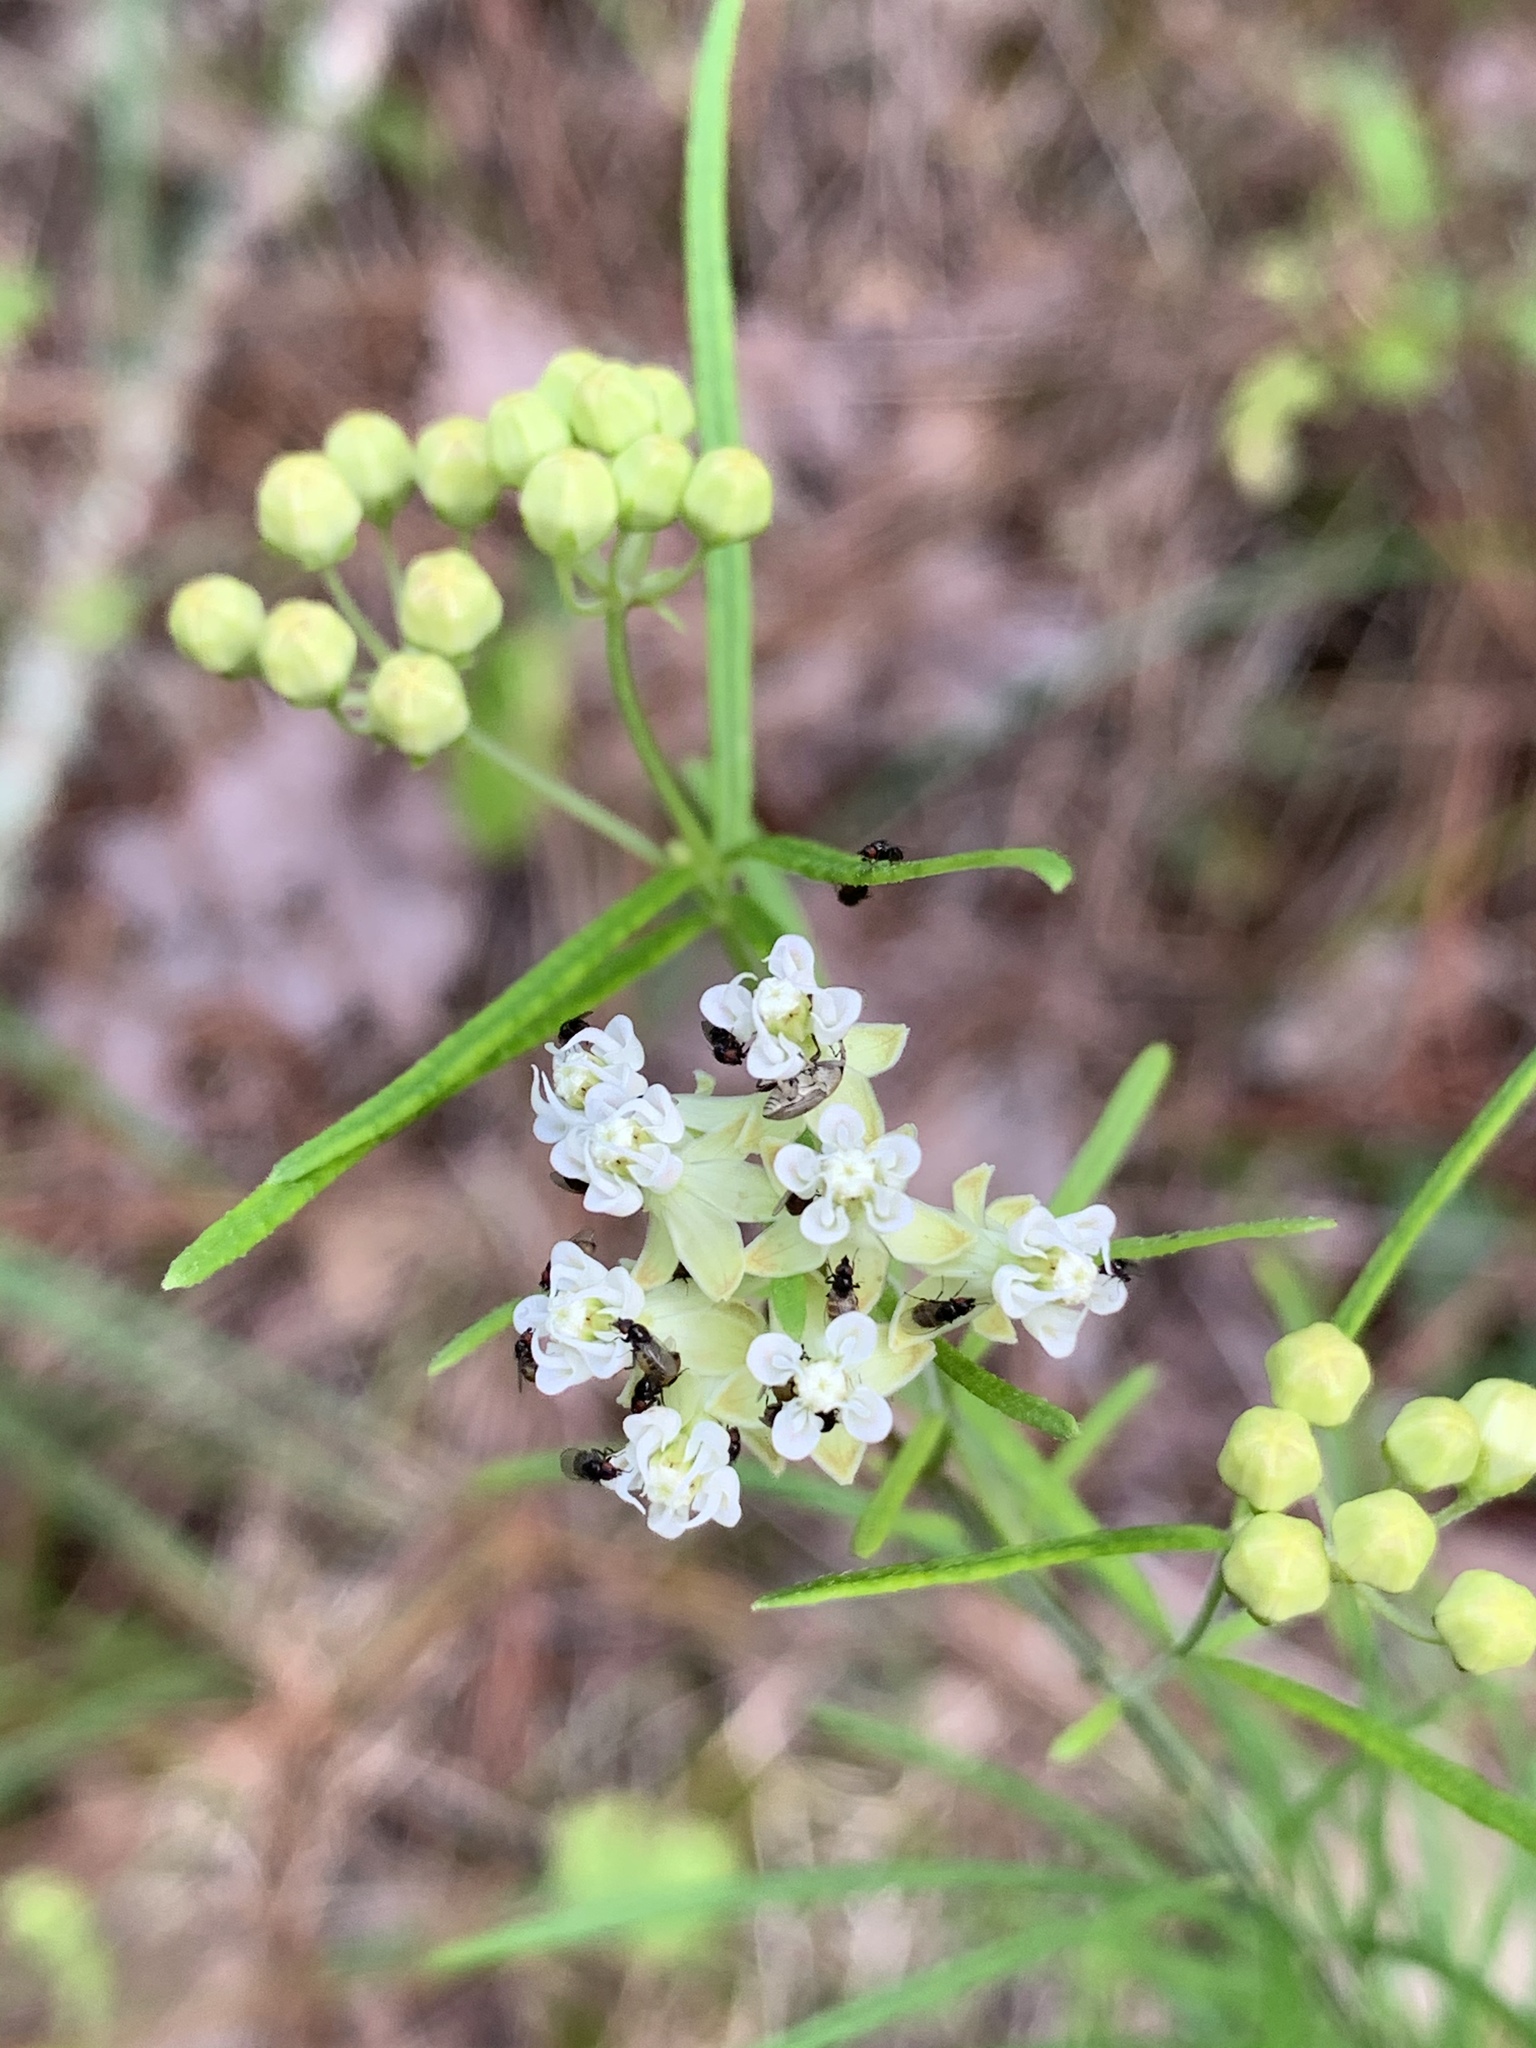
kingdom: Plantae
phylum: Tracheophyta
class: Magnoliopsida
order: Gentianales
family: Apocynaceae
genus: Asclepias
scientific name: Asclepias verticillata
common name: Eastern whorled milkweed
